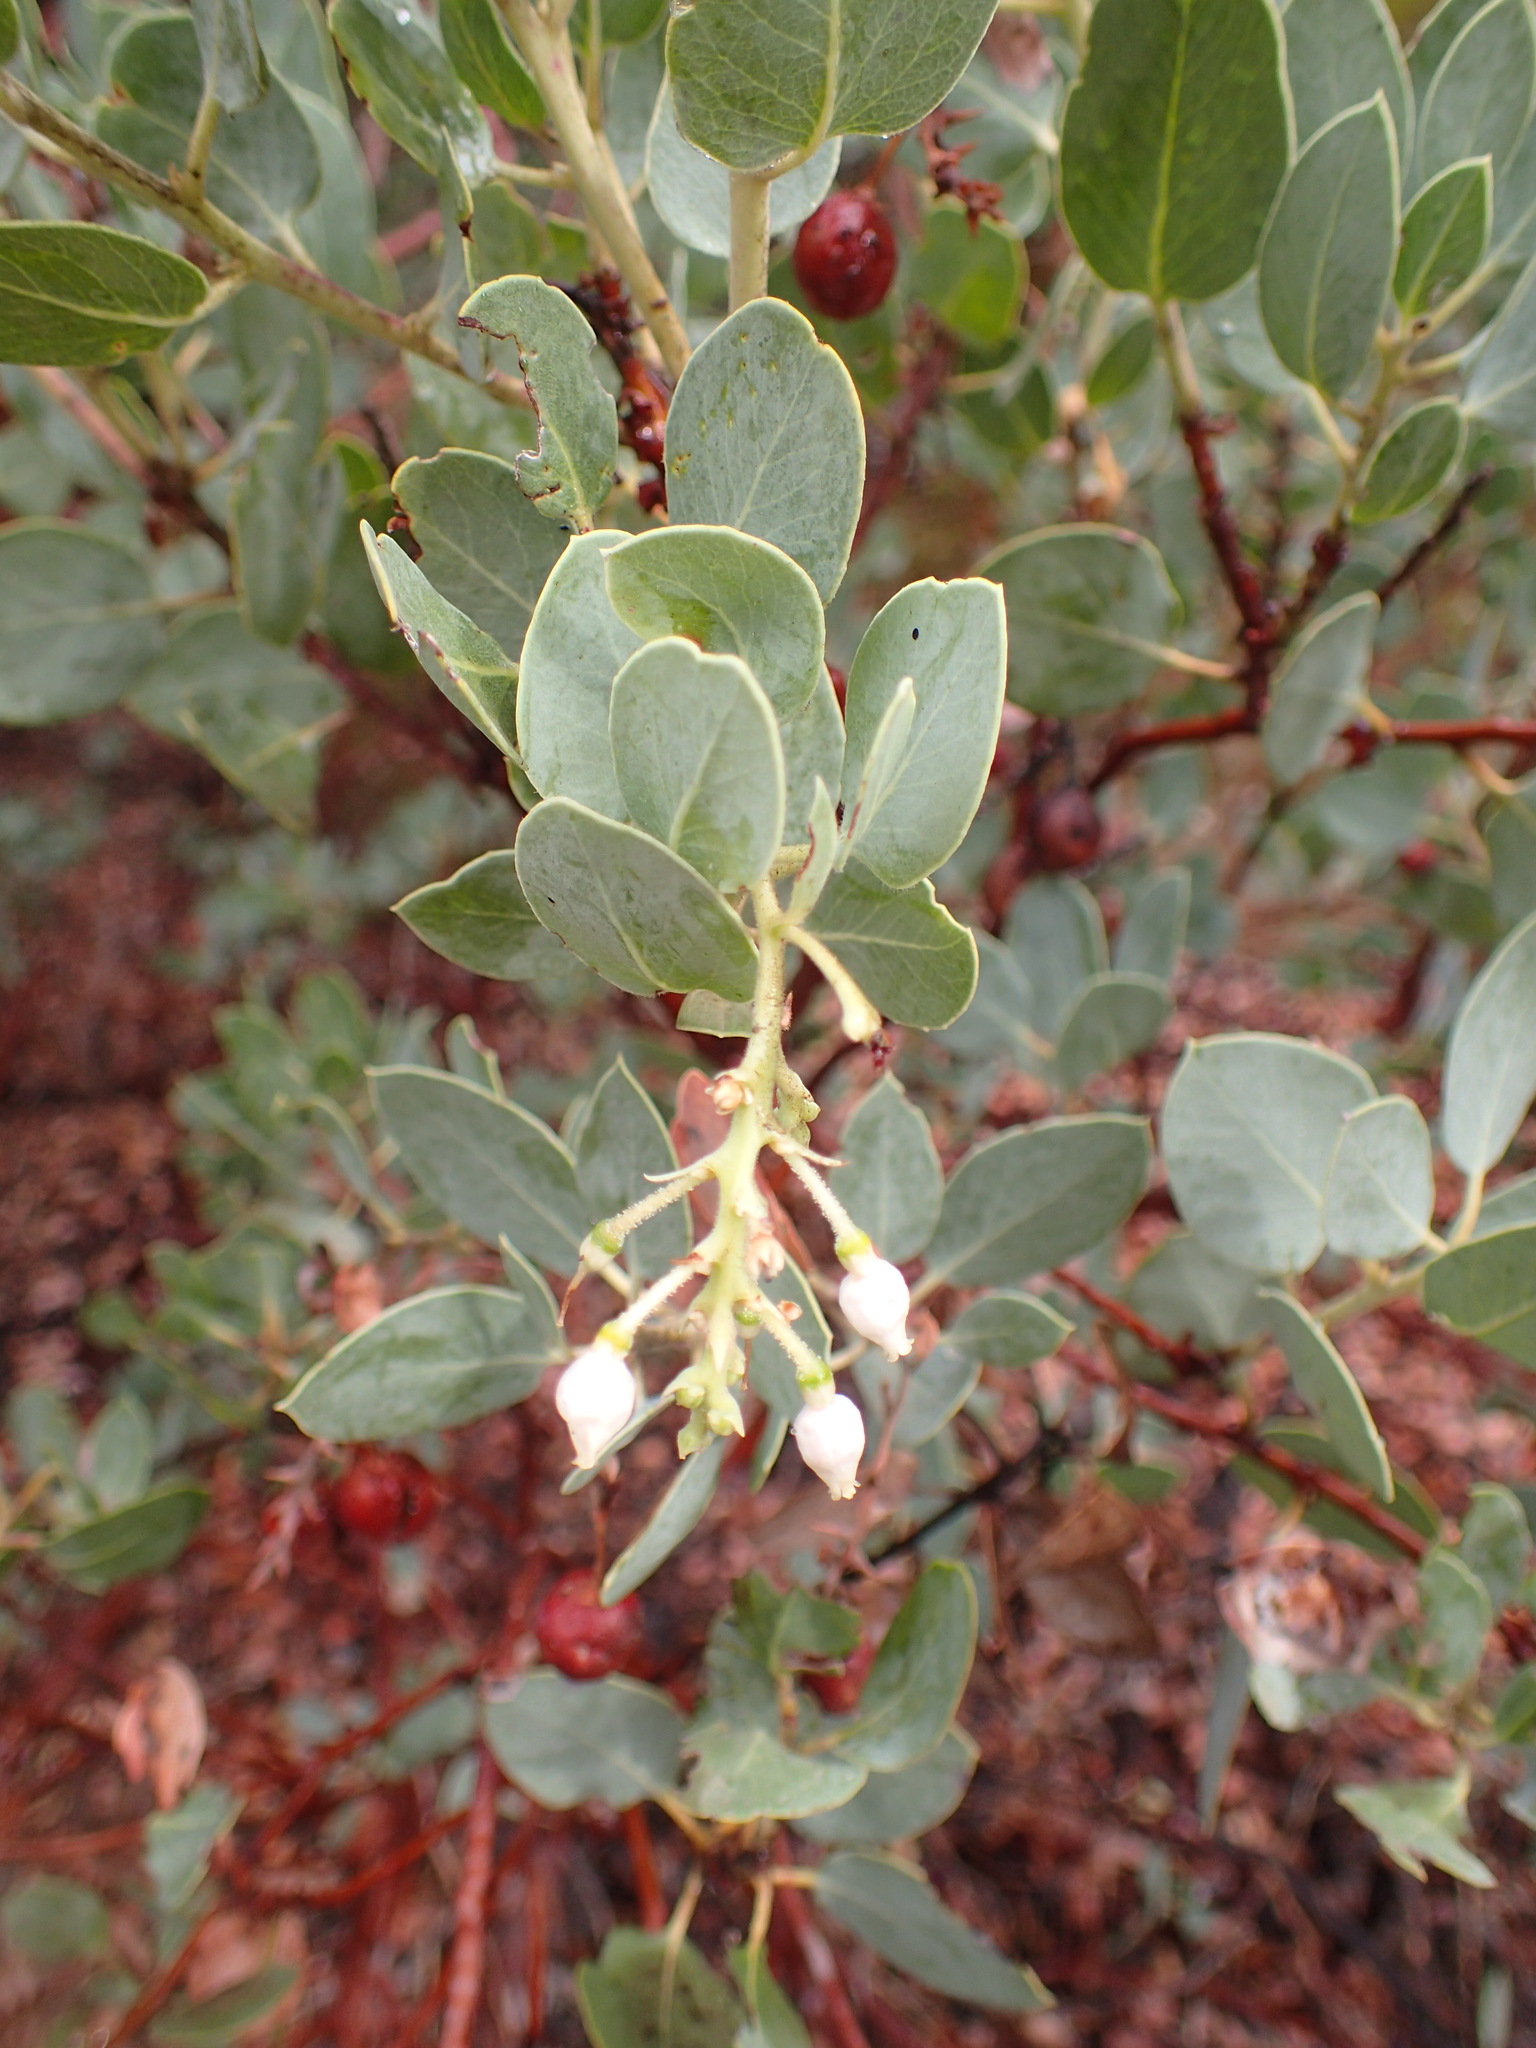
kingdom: Plantae
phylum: Tracheophyta
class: Magnoliopsida
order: Ericales
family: Ericaceae
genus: Arctostaphylos
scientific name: Arctostaphylos glauca
